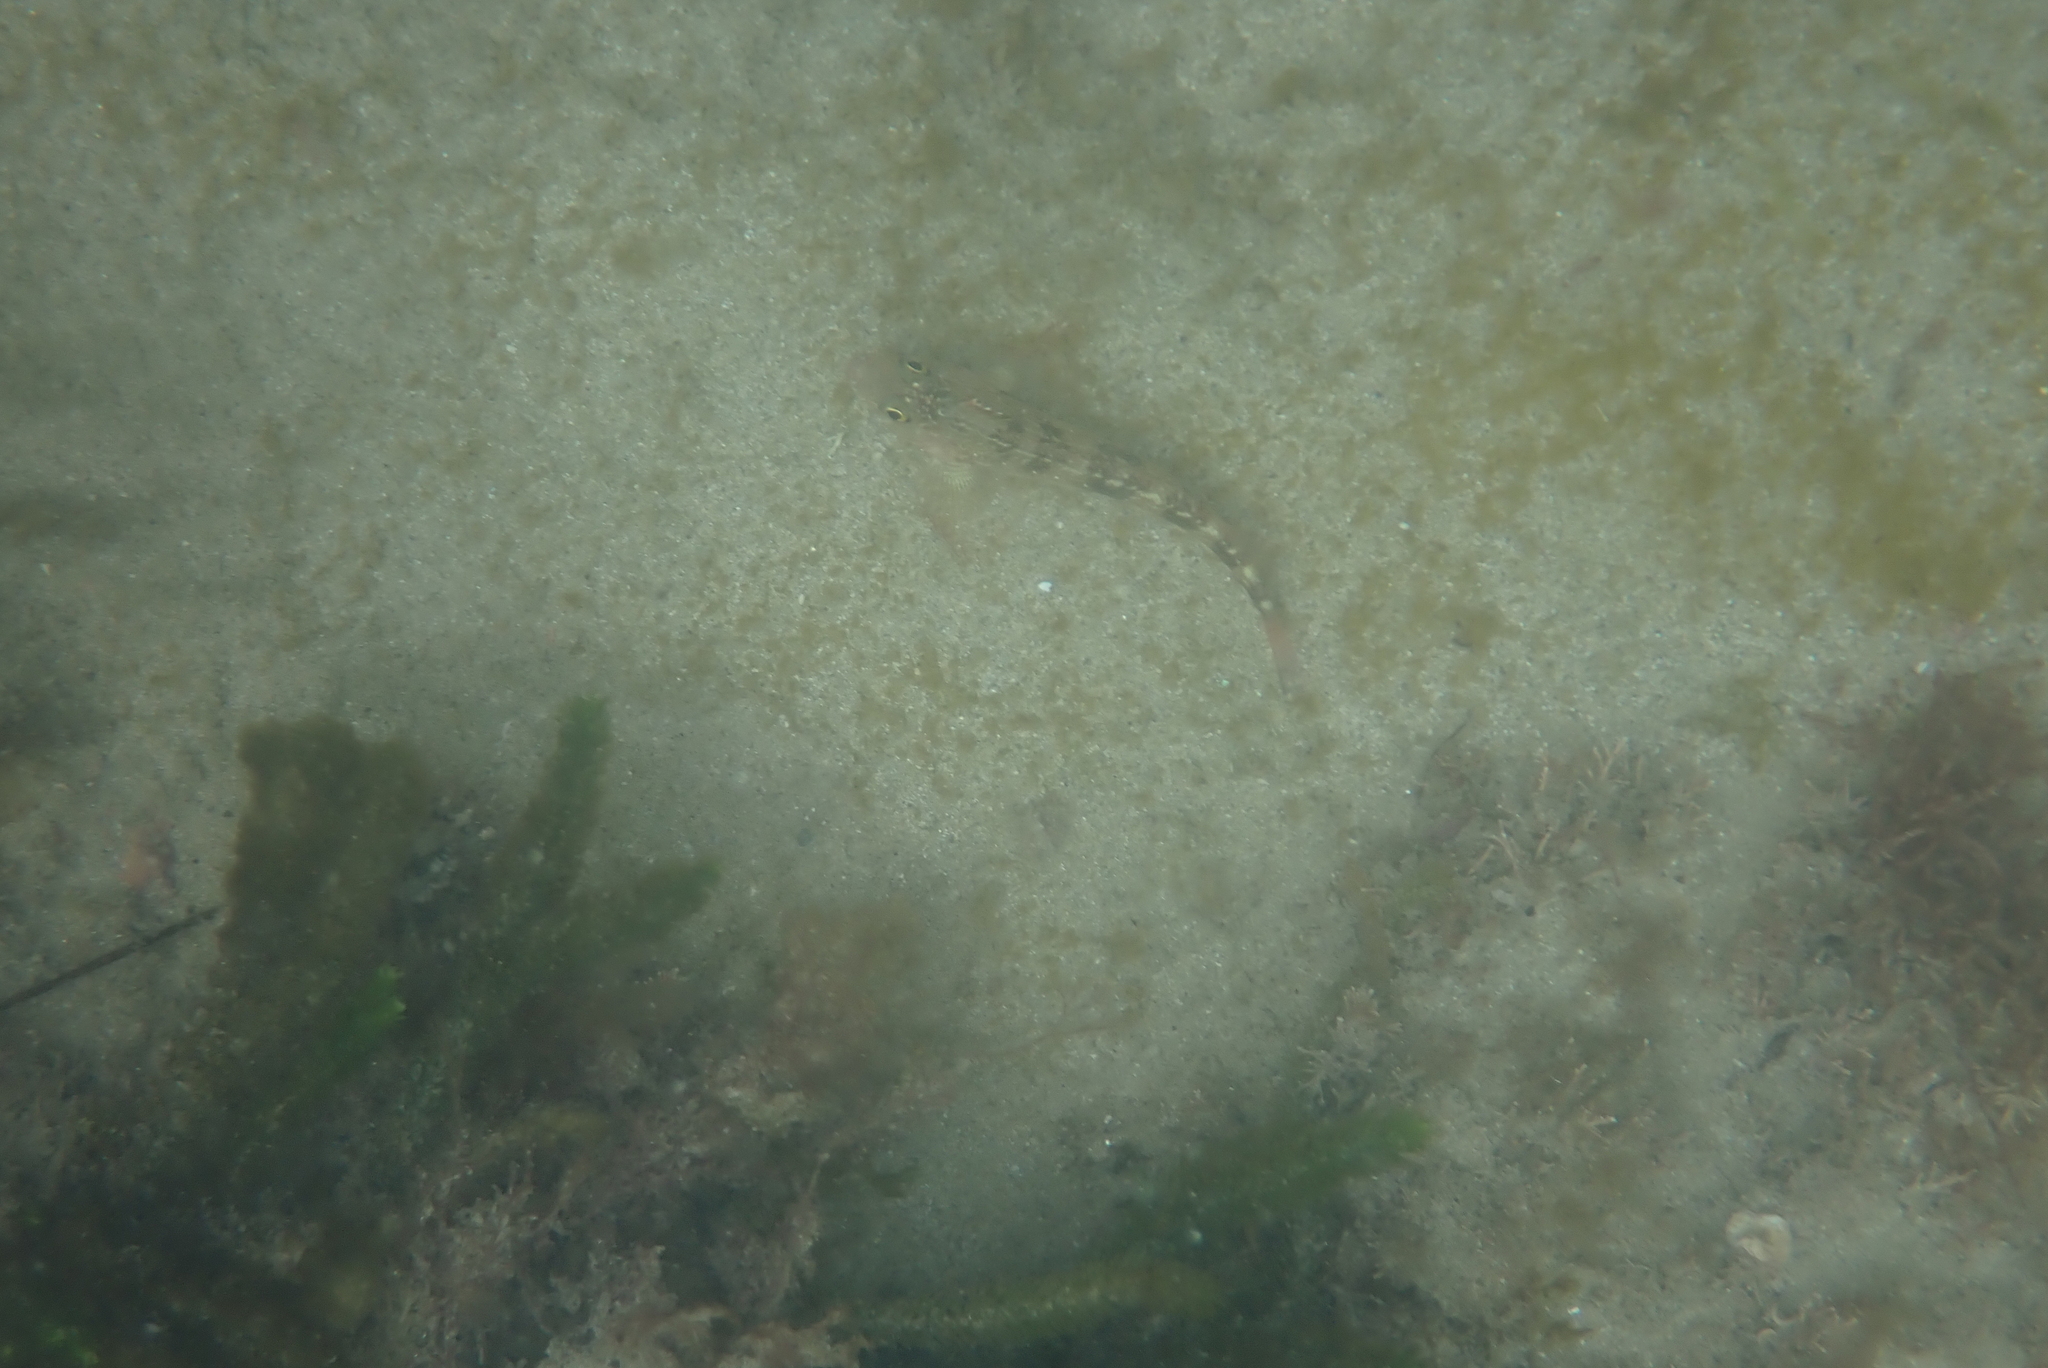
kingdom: Animalia
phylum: Chordata
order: Perciformes
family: Tripterygiidae
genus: Forsterygion
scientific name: Forsterygion varium
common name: Variable triplefin
